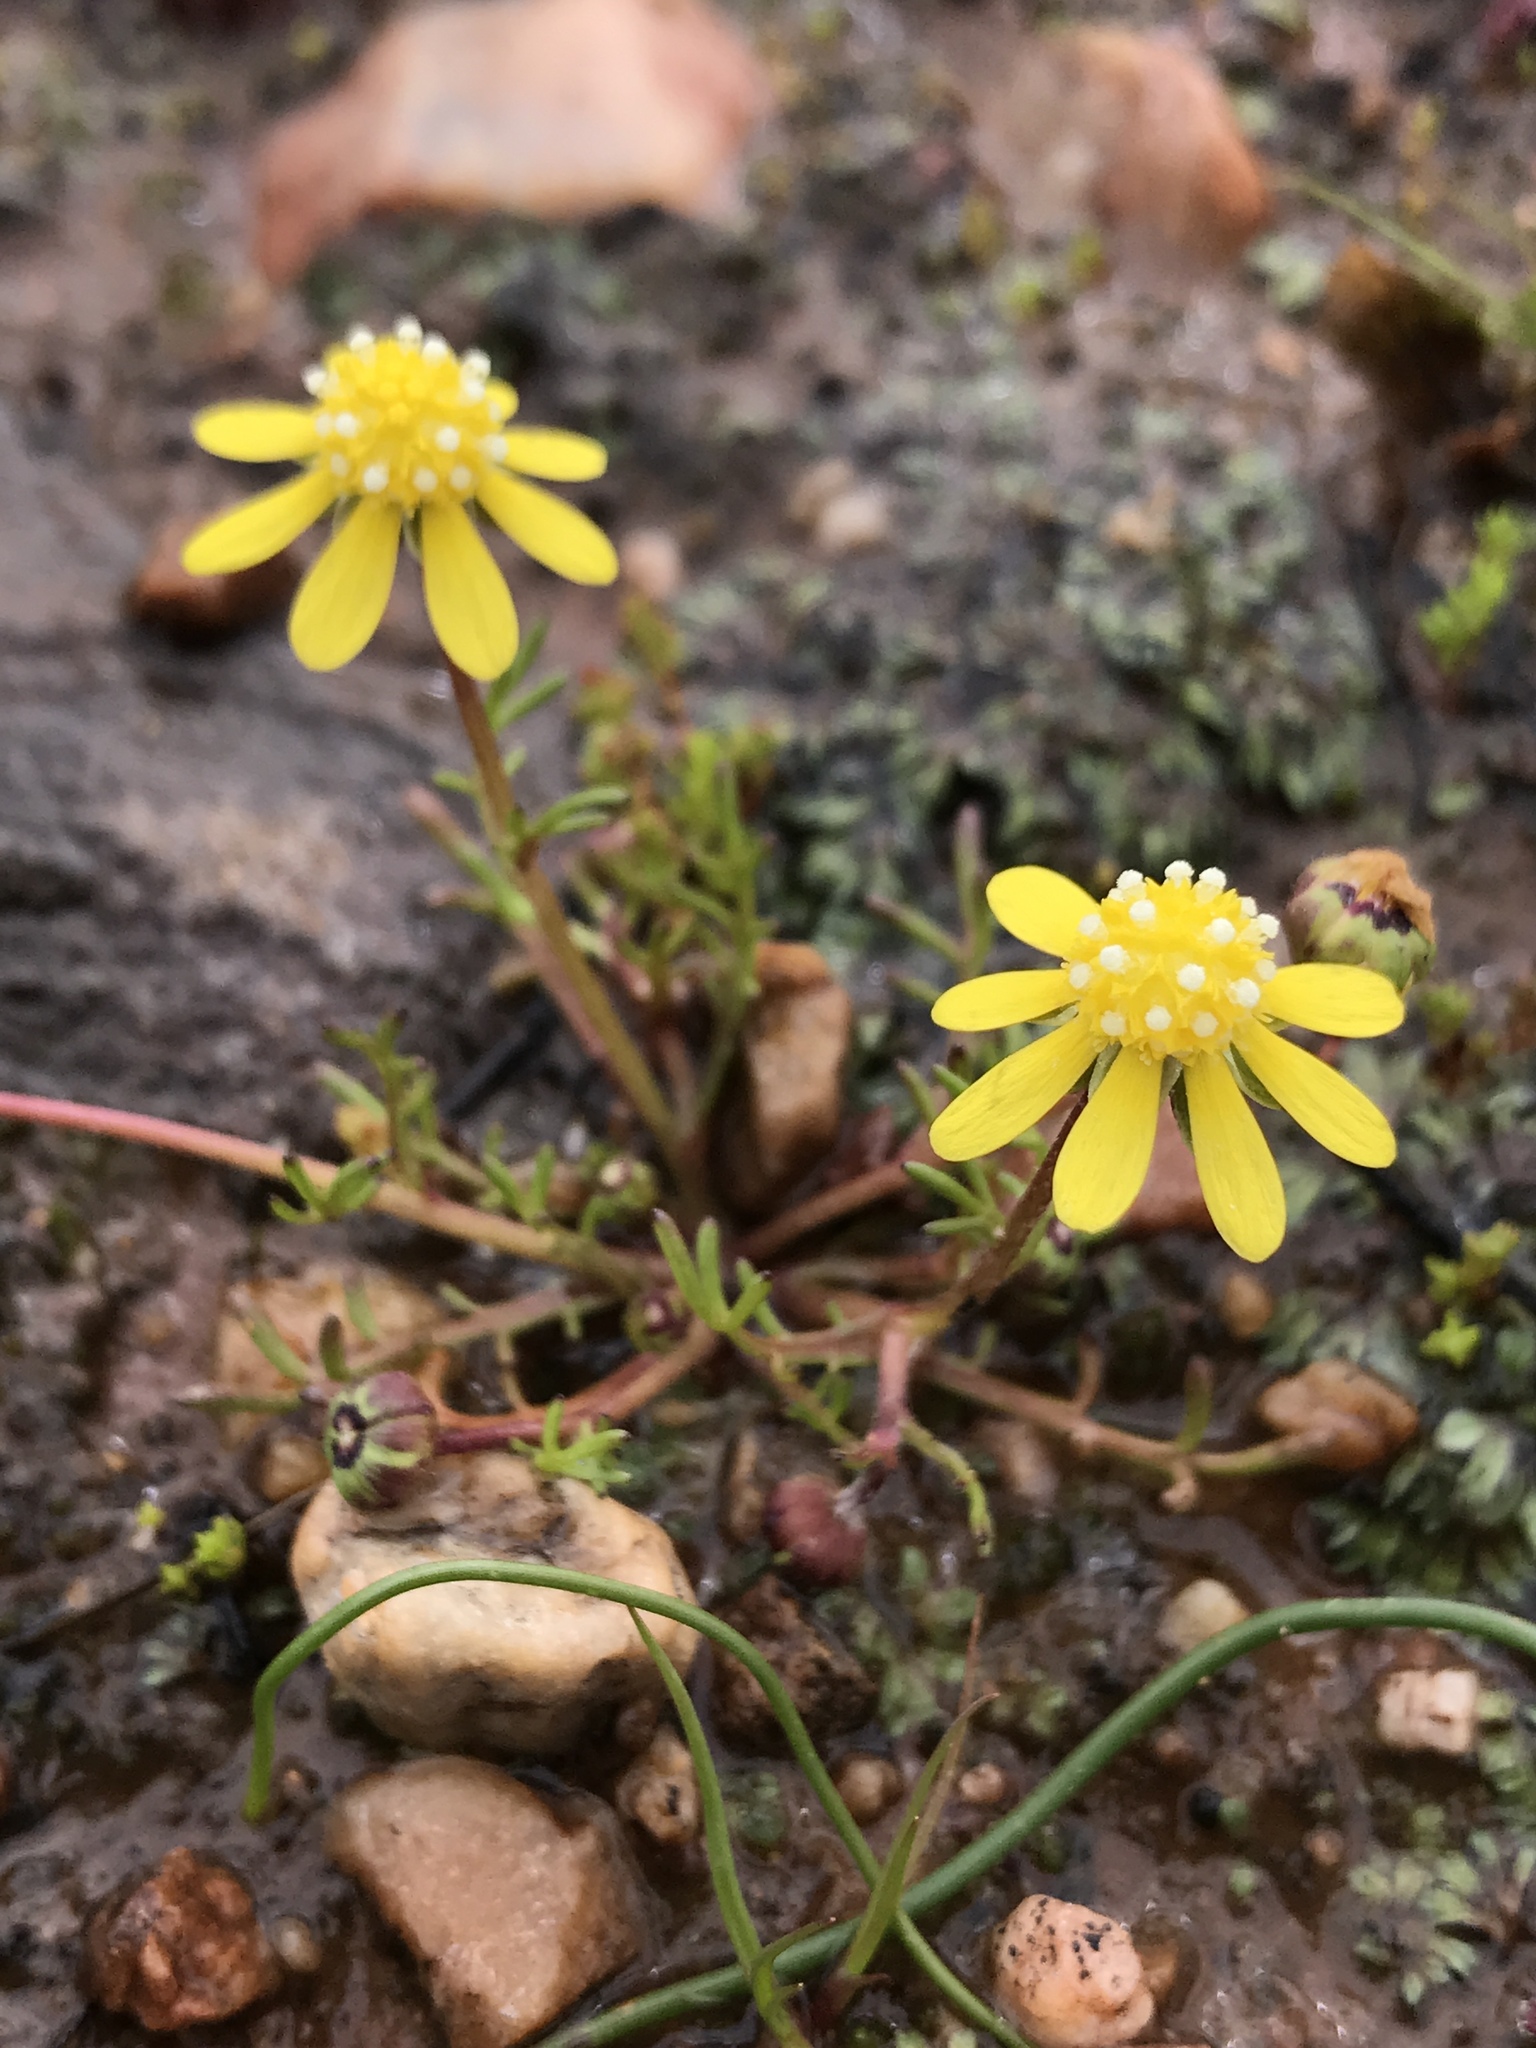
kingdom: Plantae
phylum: Tracheophyta
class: Magnoliopsida
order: Asterales
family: Asteraceae
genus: Blennosperma
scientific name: Blennosperma nanum
